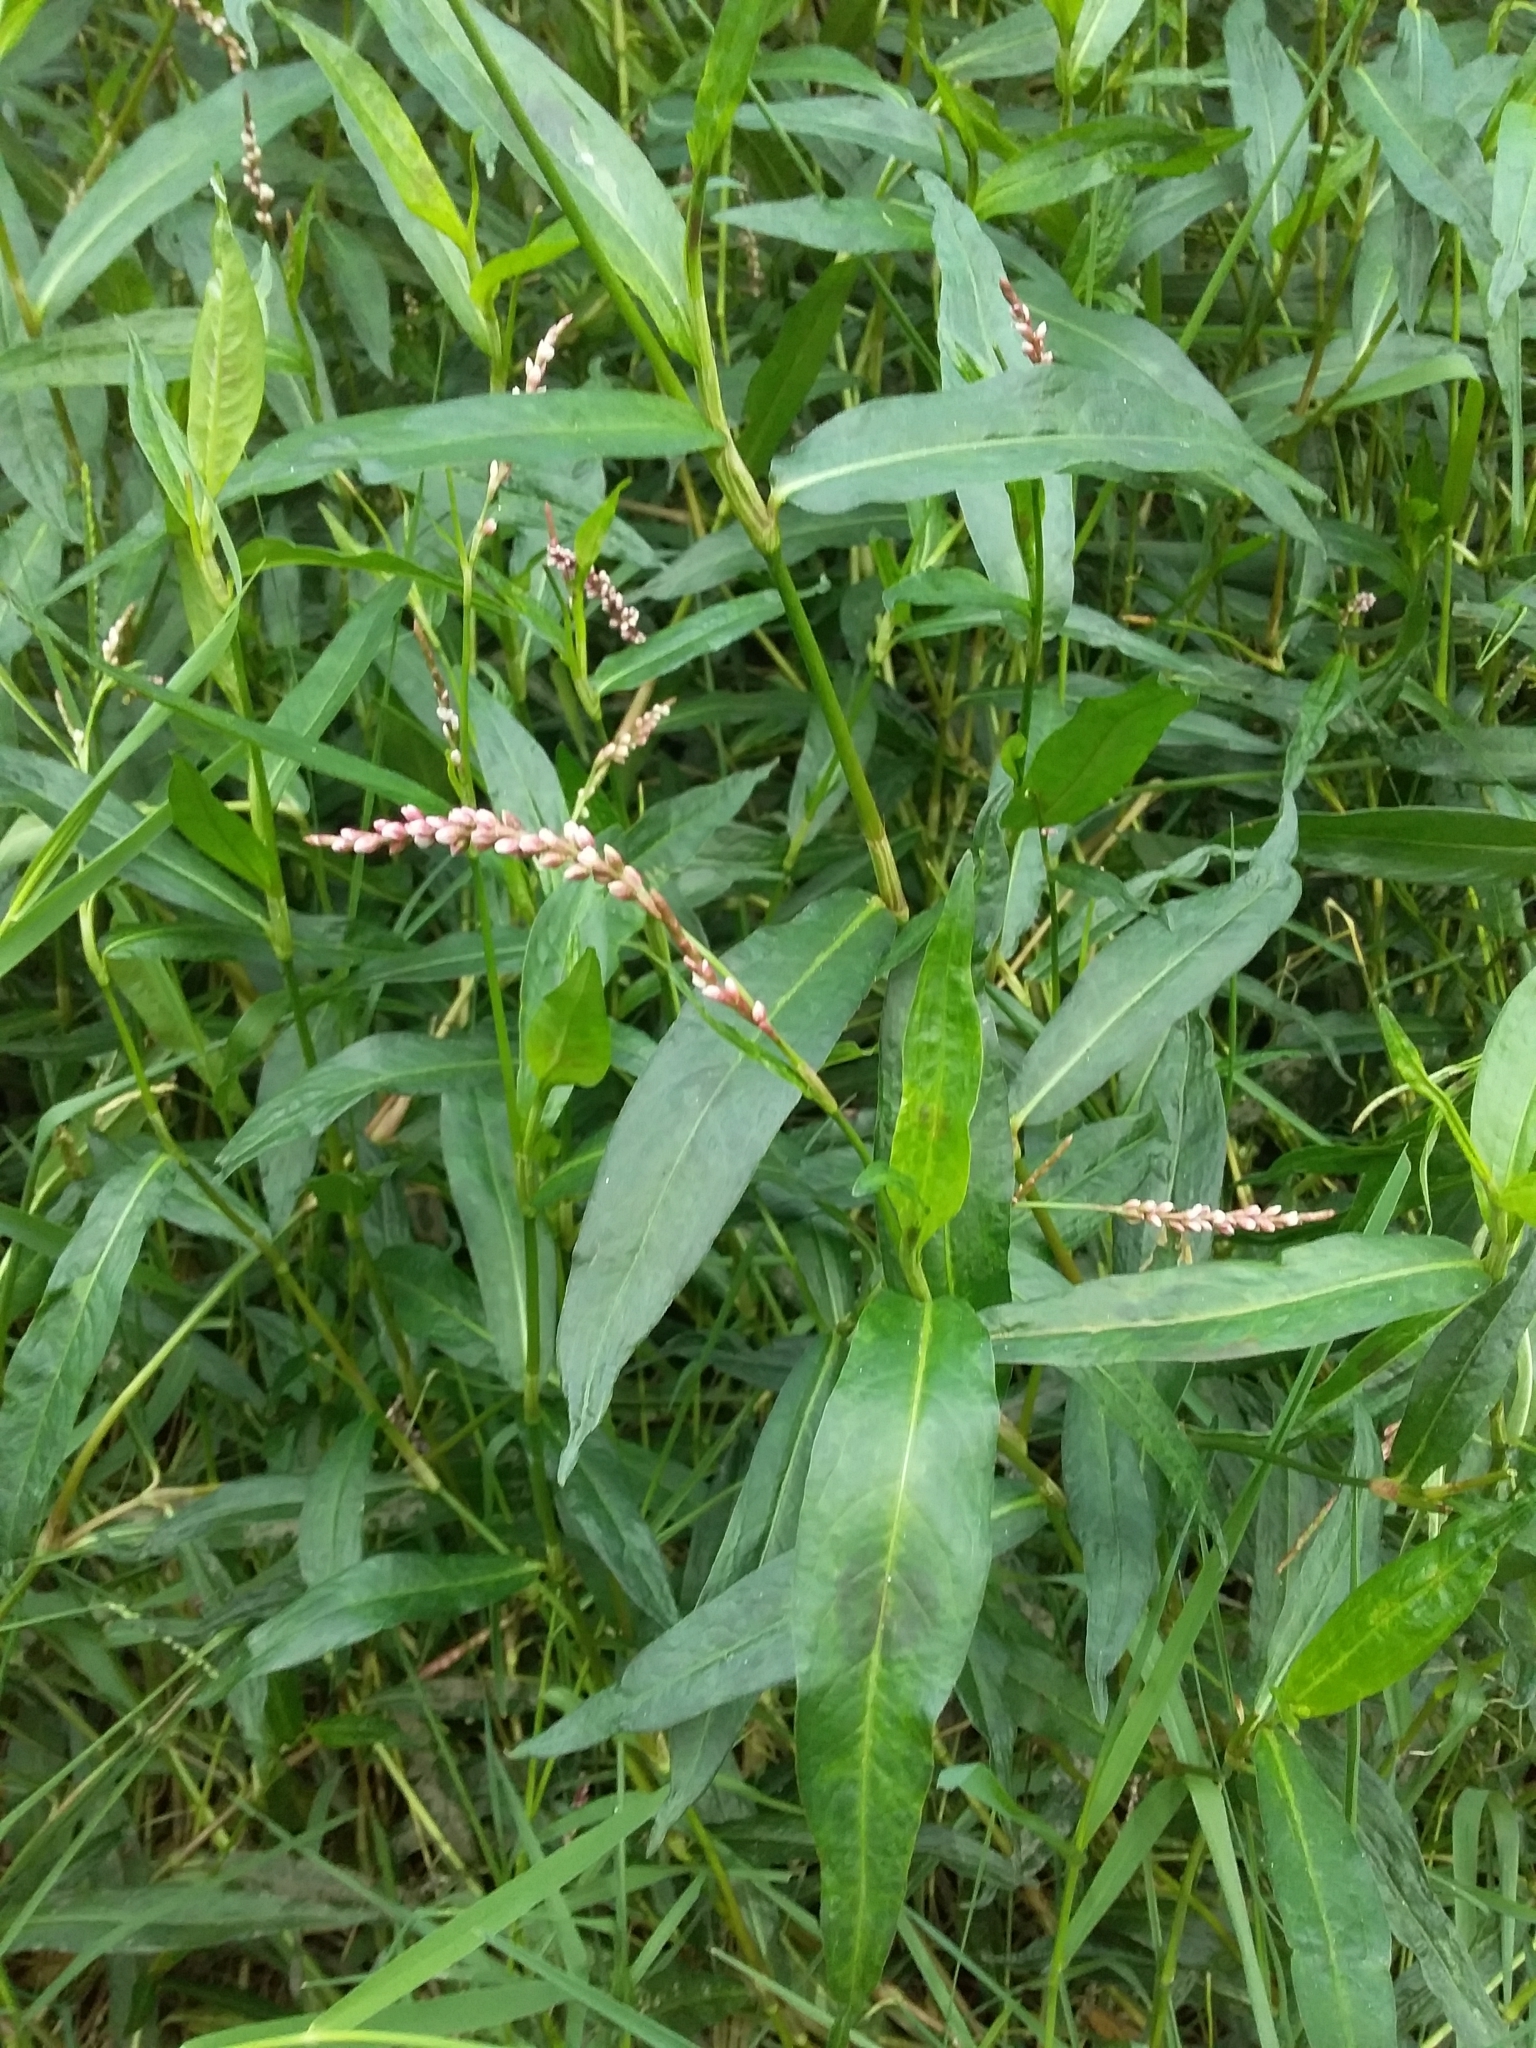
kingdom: Plantae
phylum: Tracheophyta
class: Magnoliopsida
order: Caryophyllales
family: Polygonaceae
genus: Persicaria
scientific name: Persicaria decipiens
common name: Willow-weed
